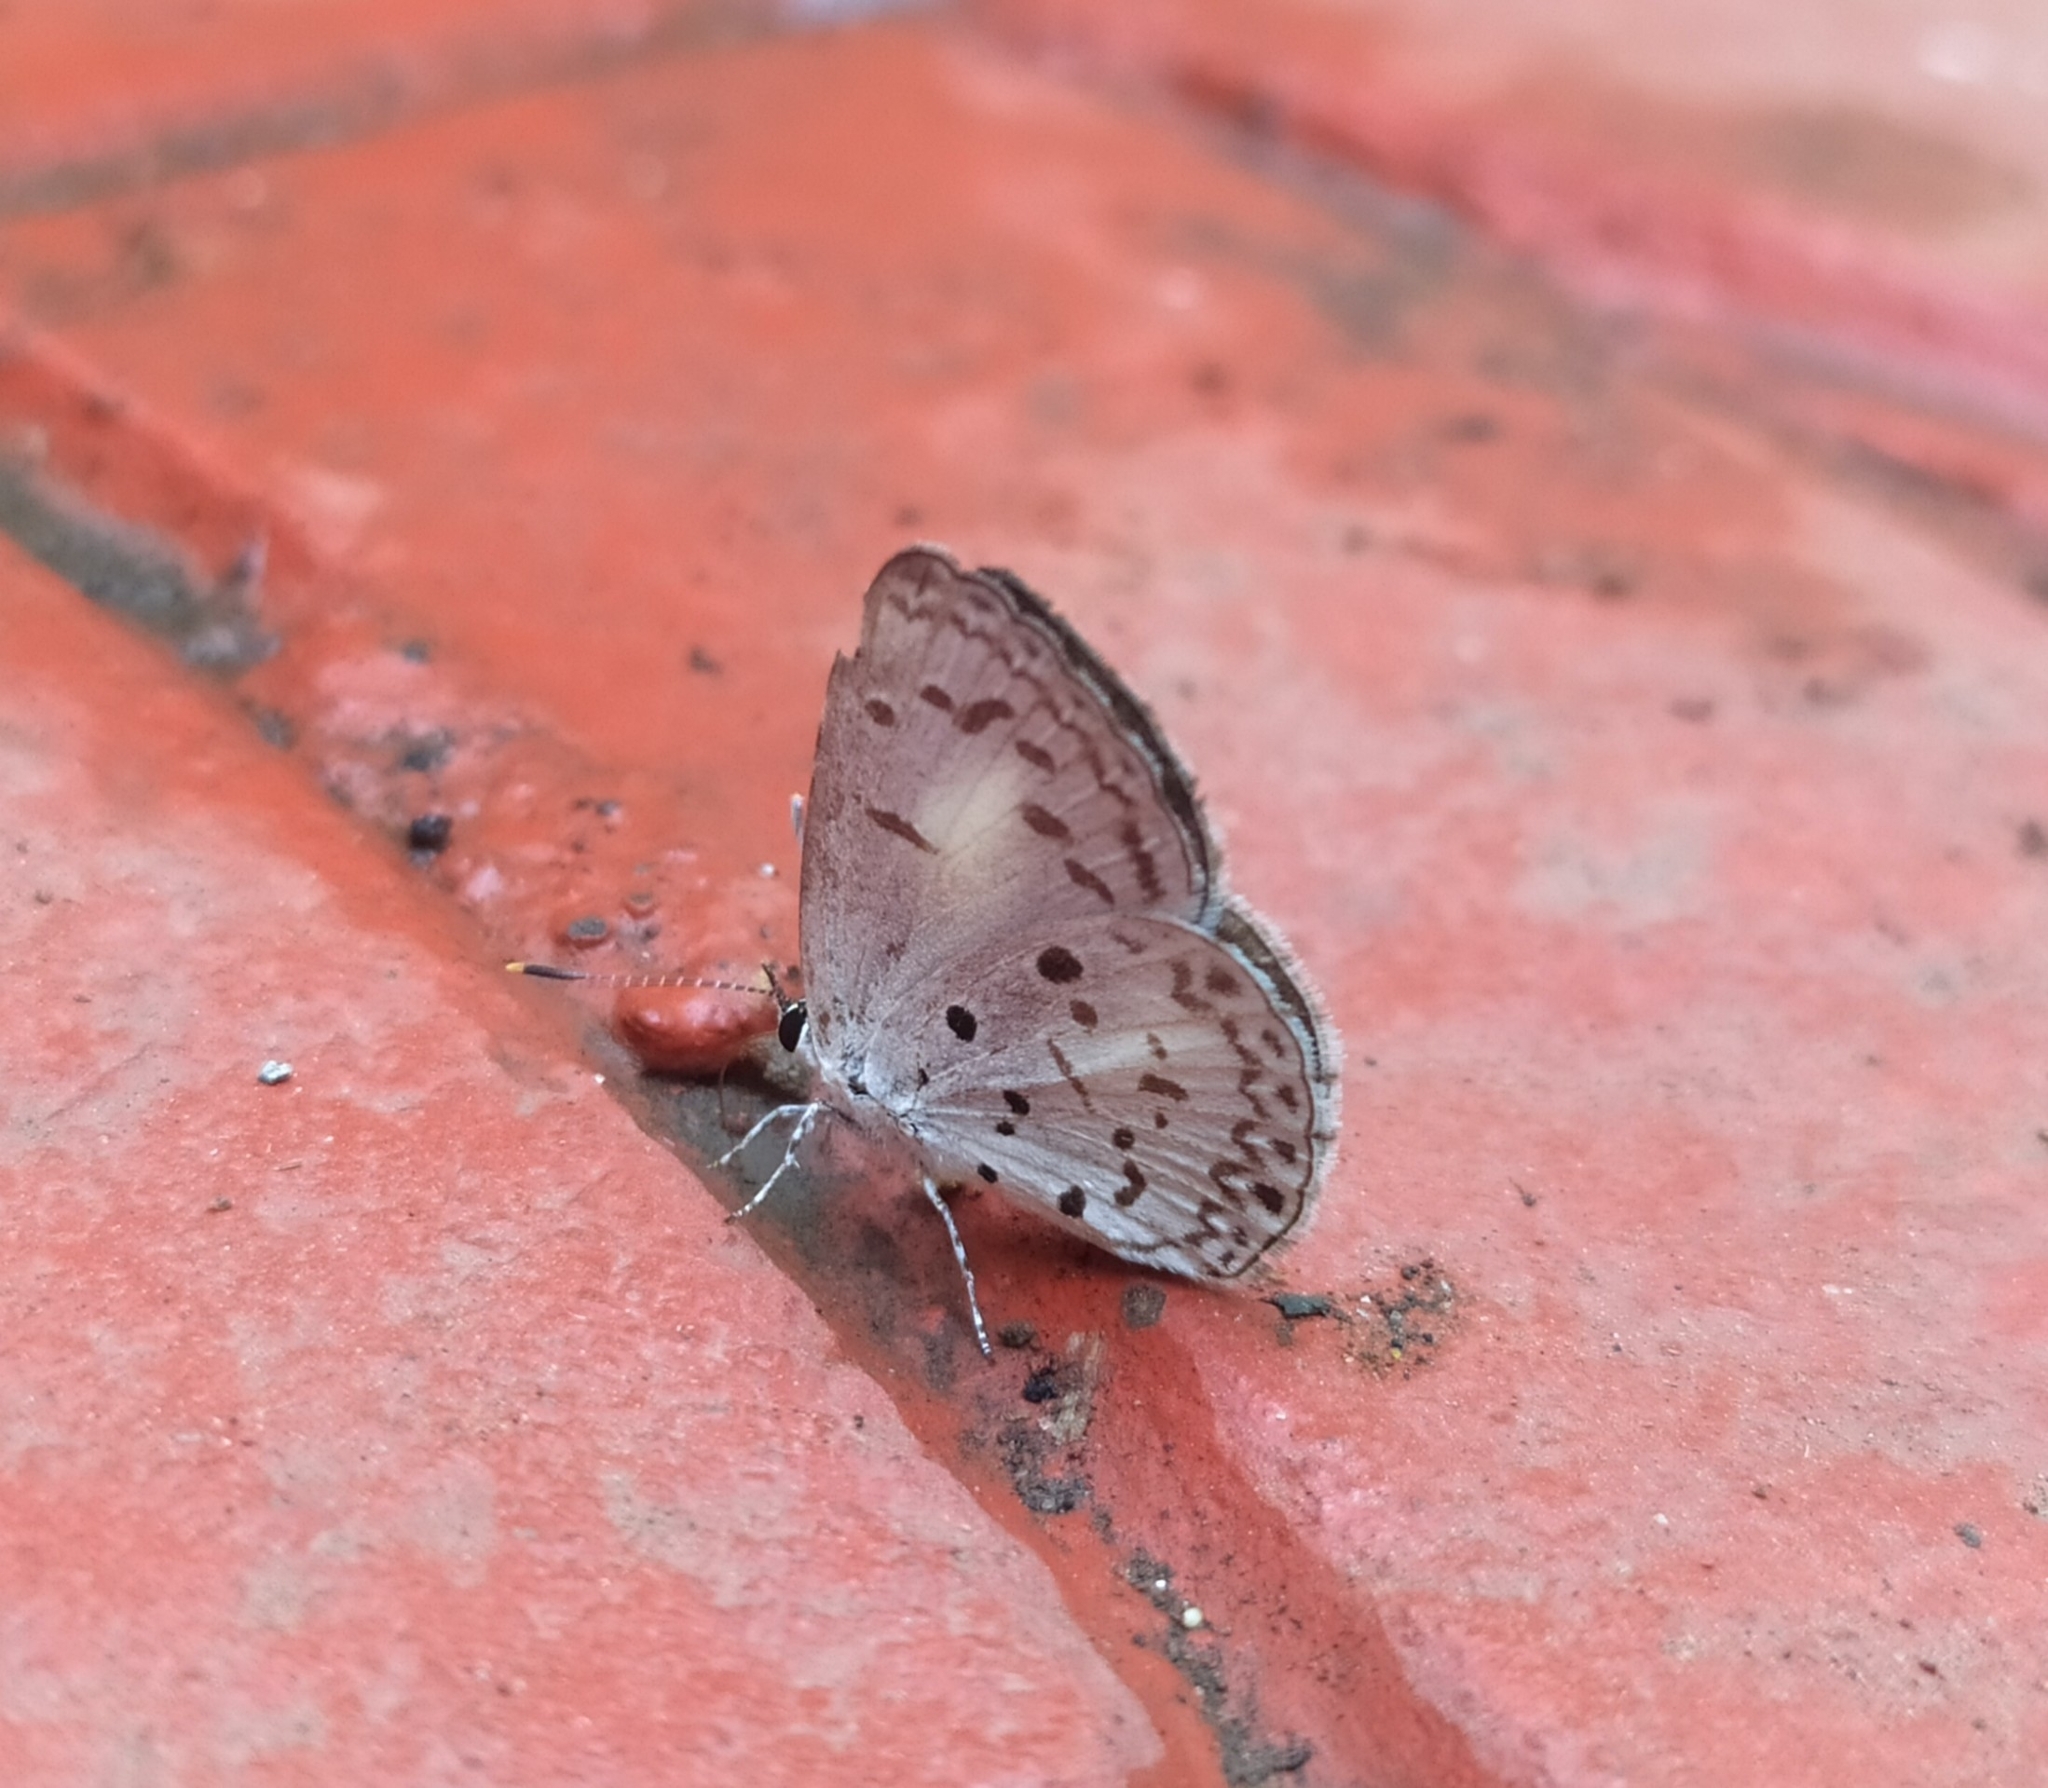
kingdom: Animalia
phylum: Arthropoda
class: Insecta
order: Lepidoptera
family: Lycaenidae
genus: Acytolepis
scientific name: Acytolepis puspa
